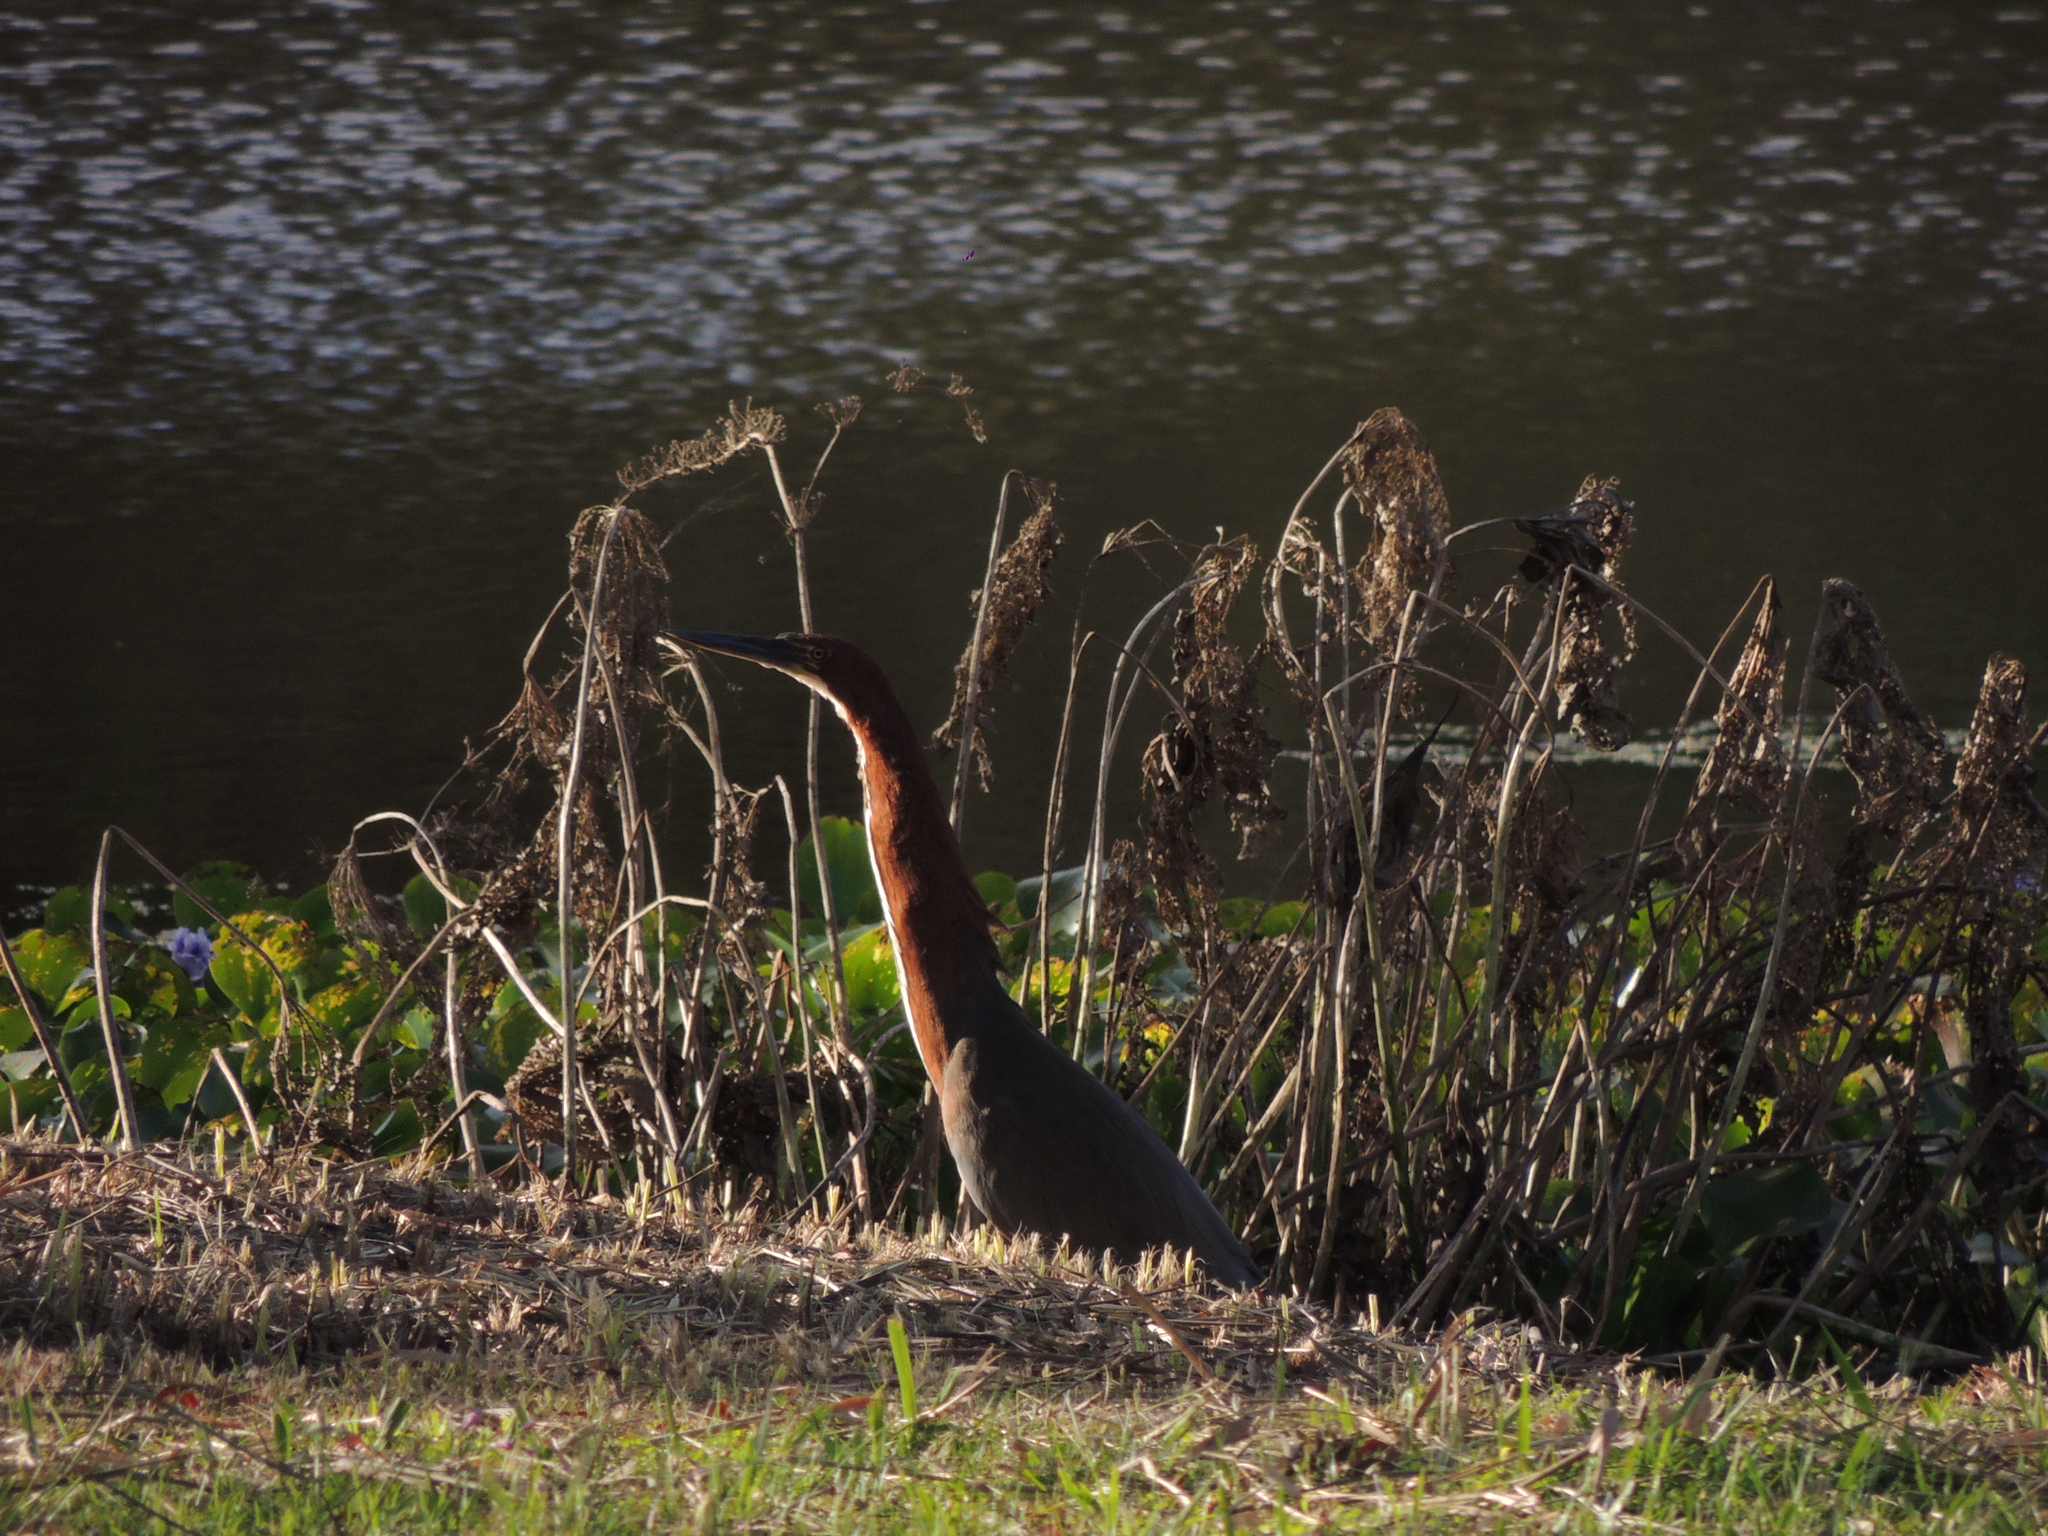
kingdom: Animalia
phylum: Chordata
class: Aves
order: Pelecaniformes
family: Ardeidae
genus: Tigrisoma
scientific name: Tigrisoma lineatum
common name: Rufescent tiger-heron
